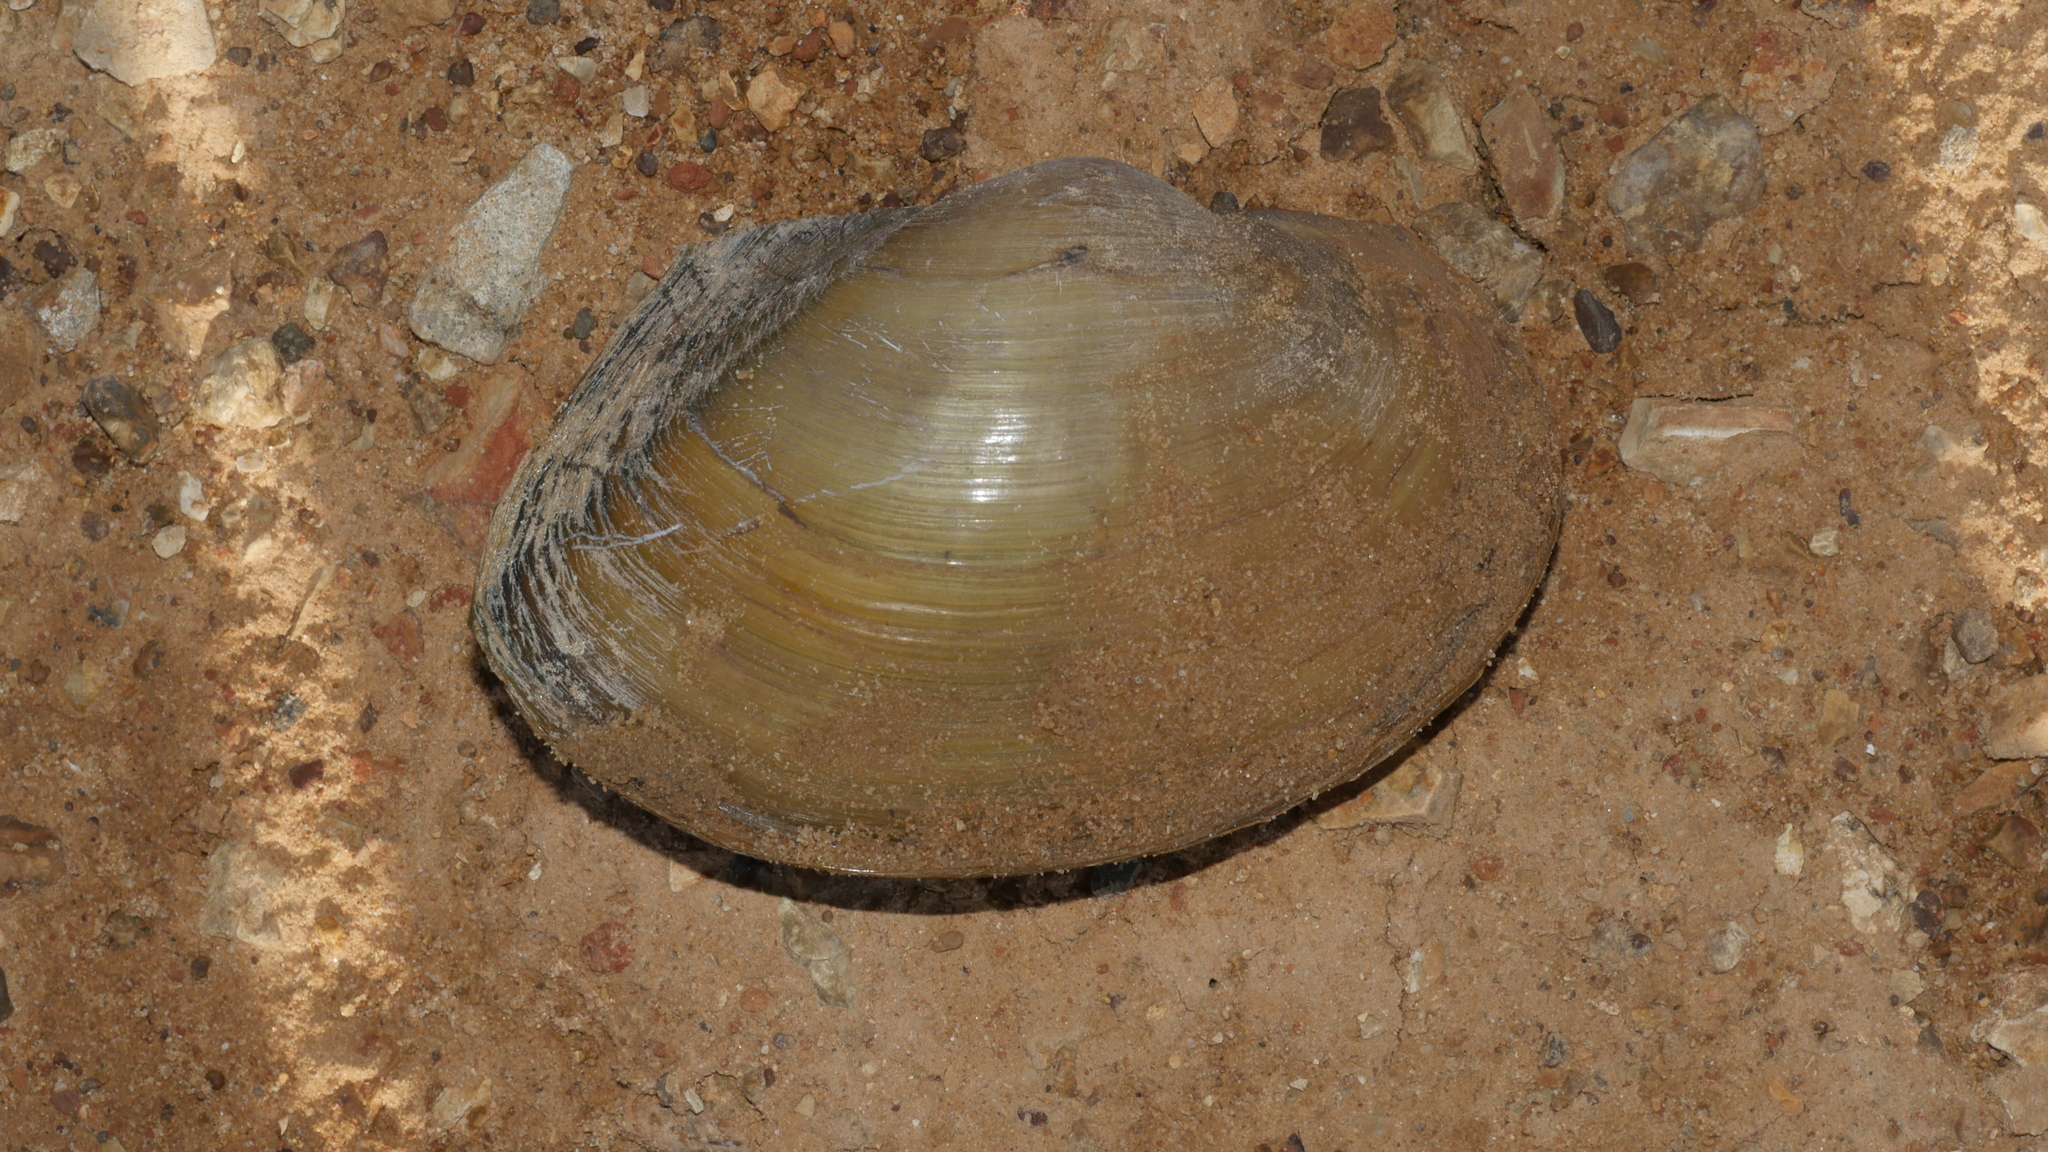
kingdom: Animalia
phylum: Mollusca
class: Bivalvia
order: Unionida
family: Unionidae
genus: Pyganodon
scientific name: Pyganodon grandis
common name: Giant floater
